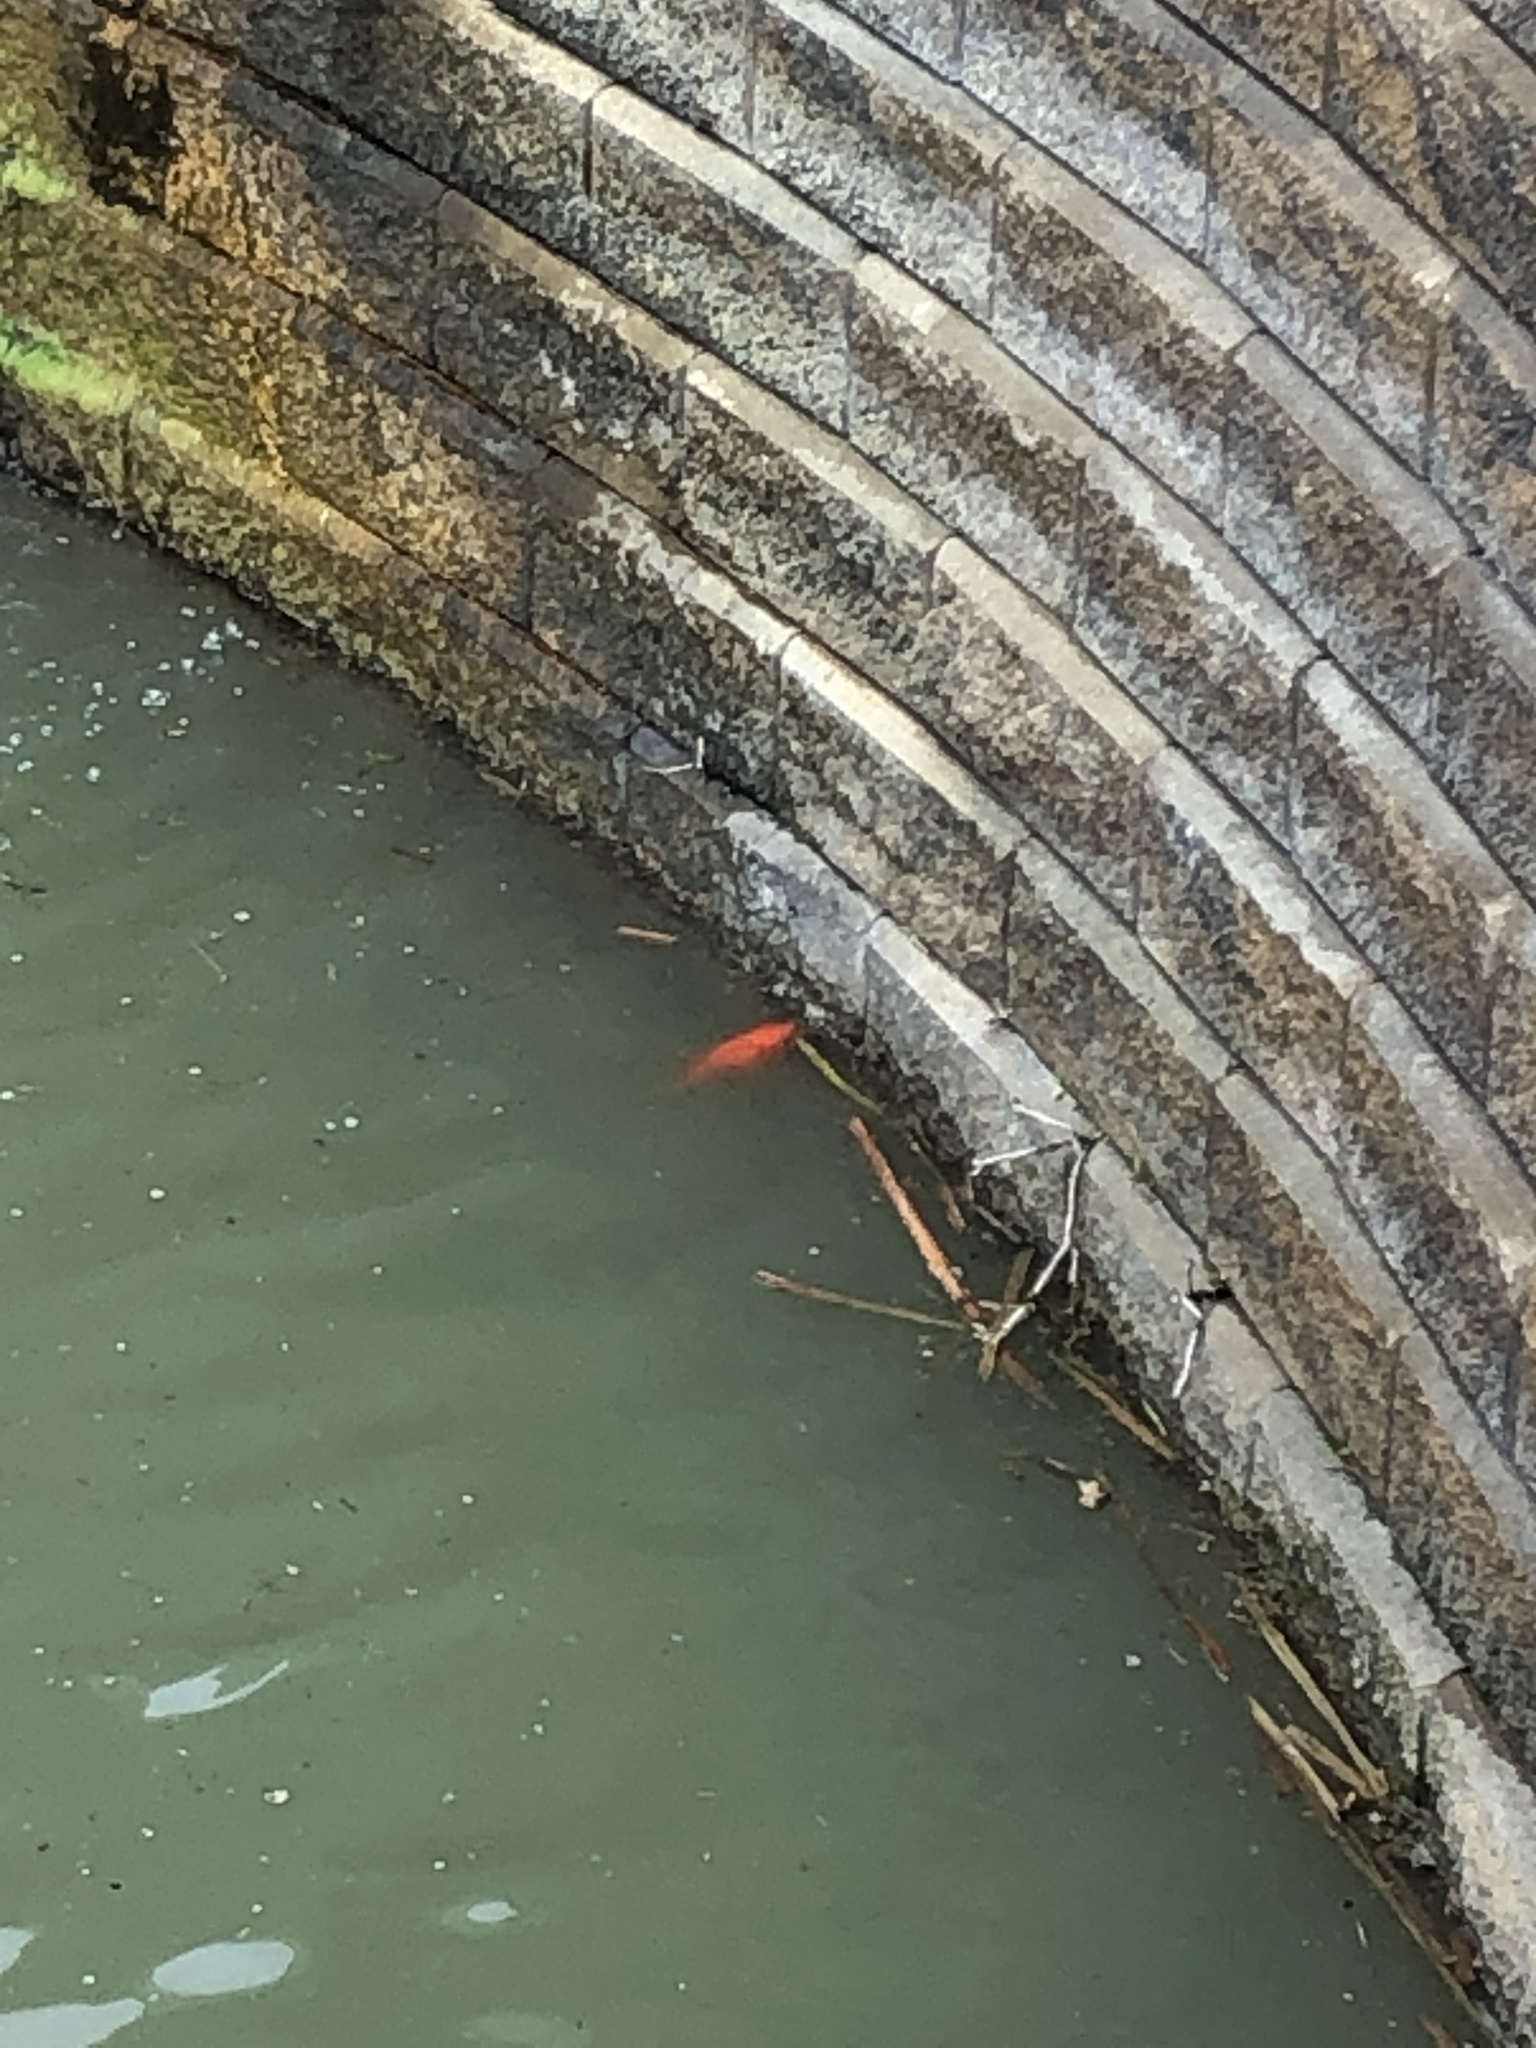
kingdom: Animalia
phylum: Chordata
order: Cypriniformes
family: Cyprinidae
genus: Carassius
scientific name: Carassius auratus
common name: Goldfish
